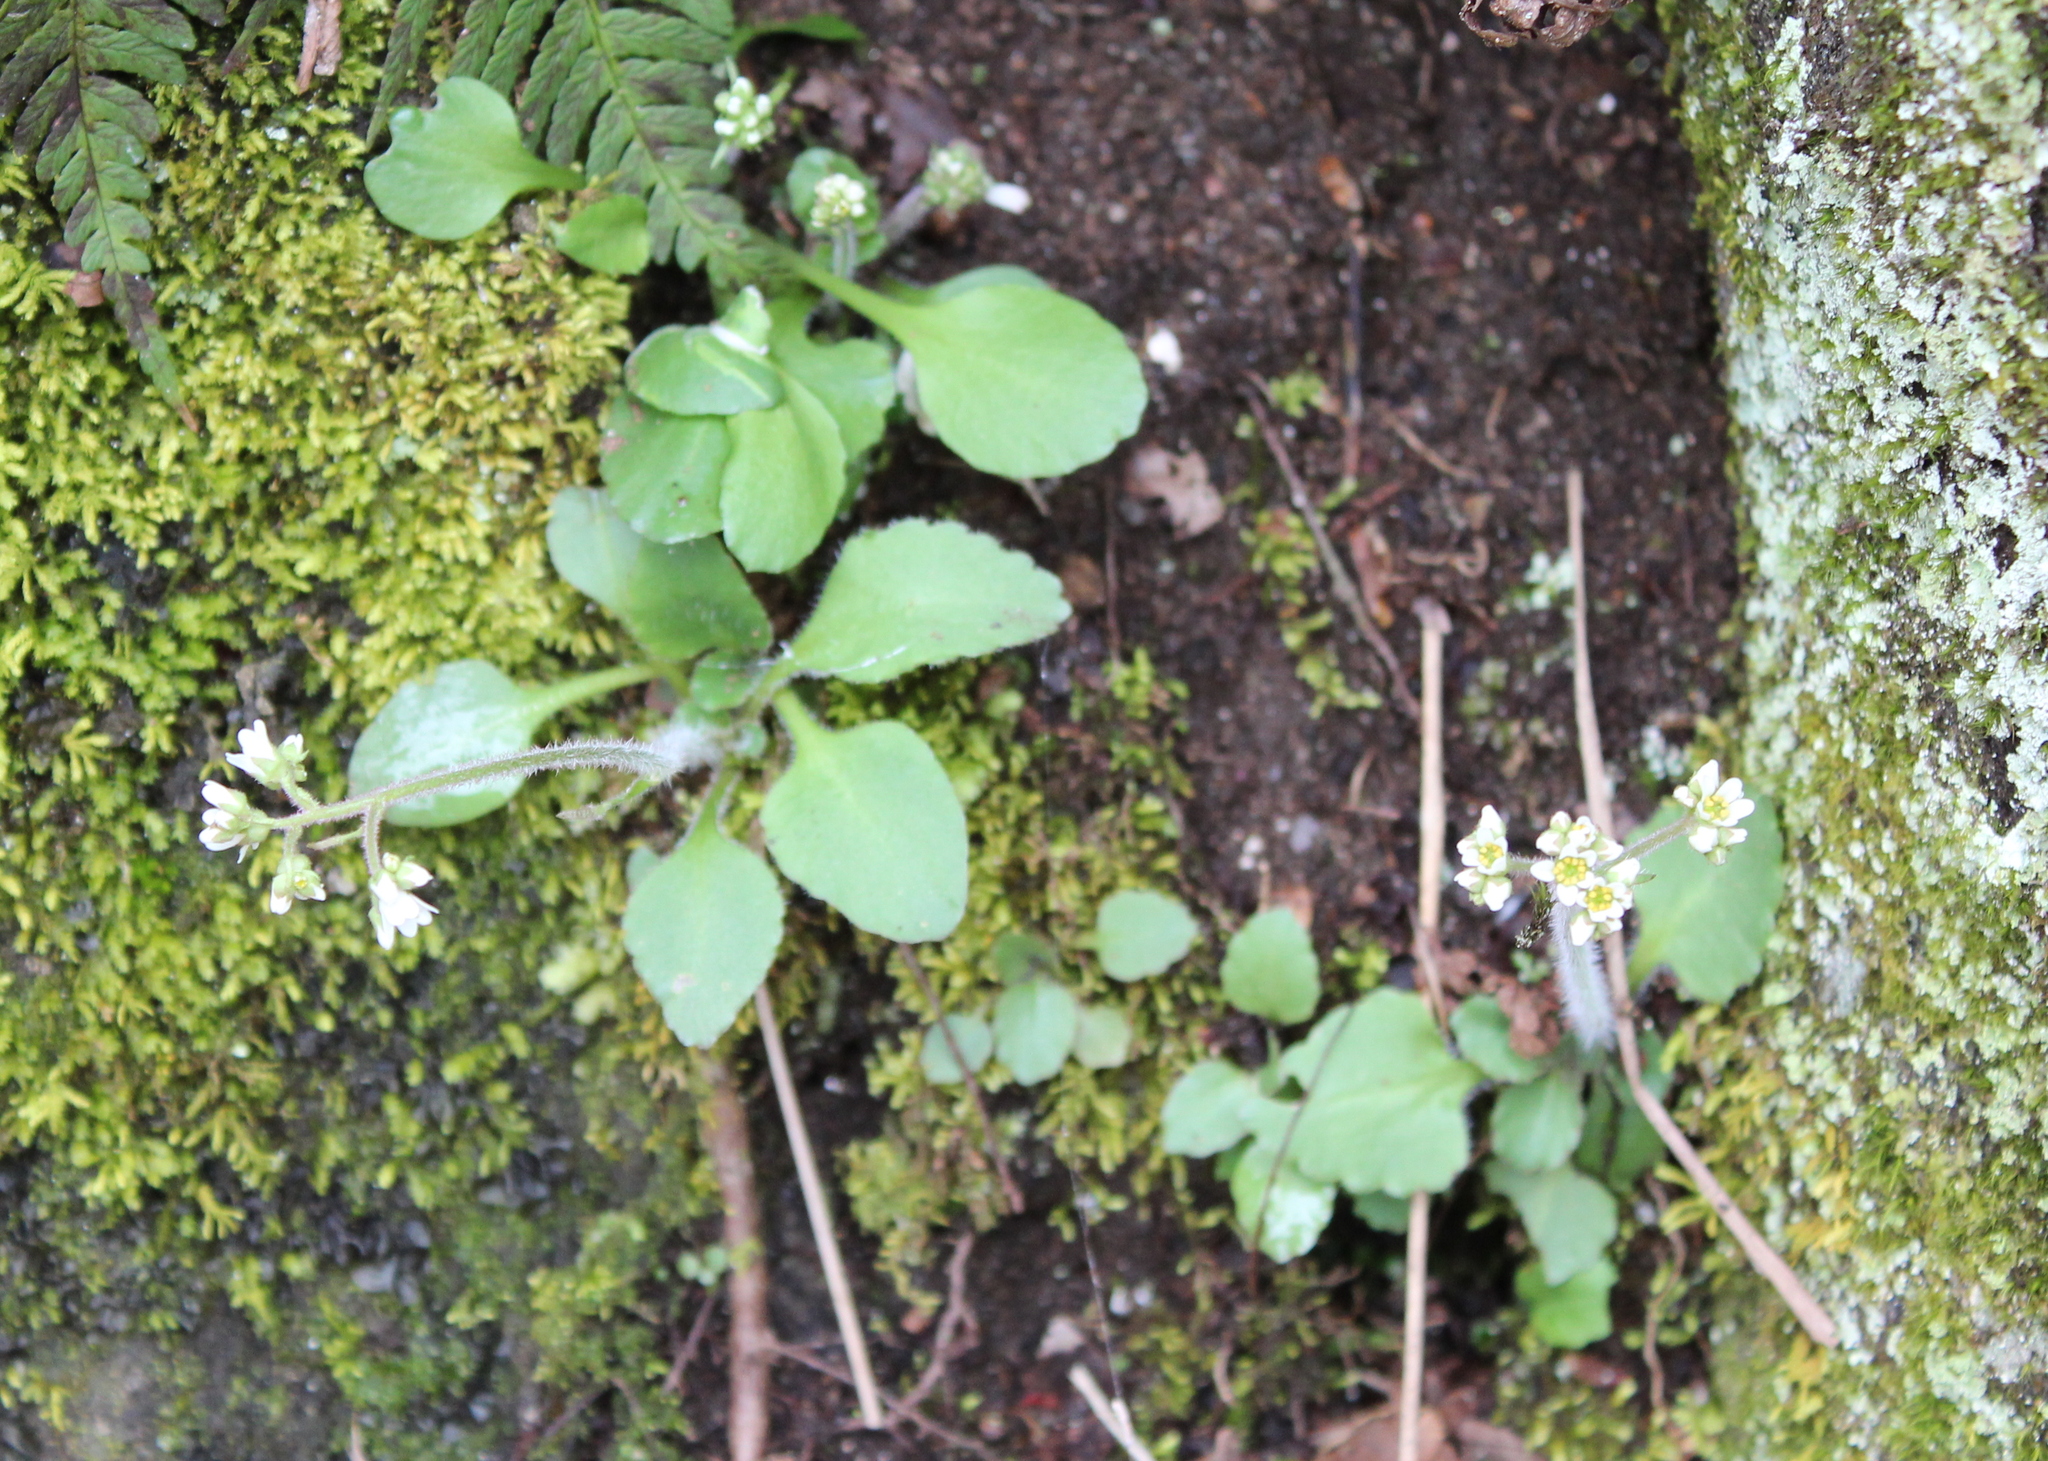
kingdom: Plantae
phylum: Tracheophyta
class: Magnoliopsida
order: Saxifragales
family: Saxifragaceae
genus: Micranthes
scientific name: Micranthes virginiensis
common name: Early saxifrage
